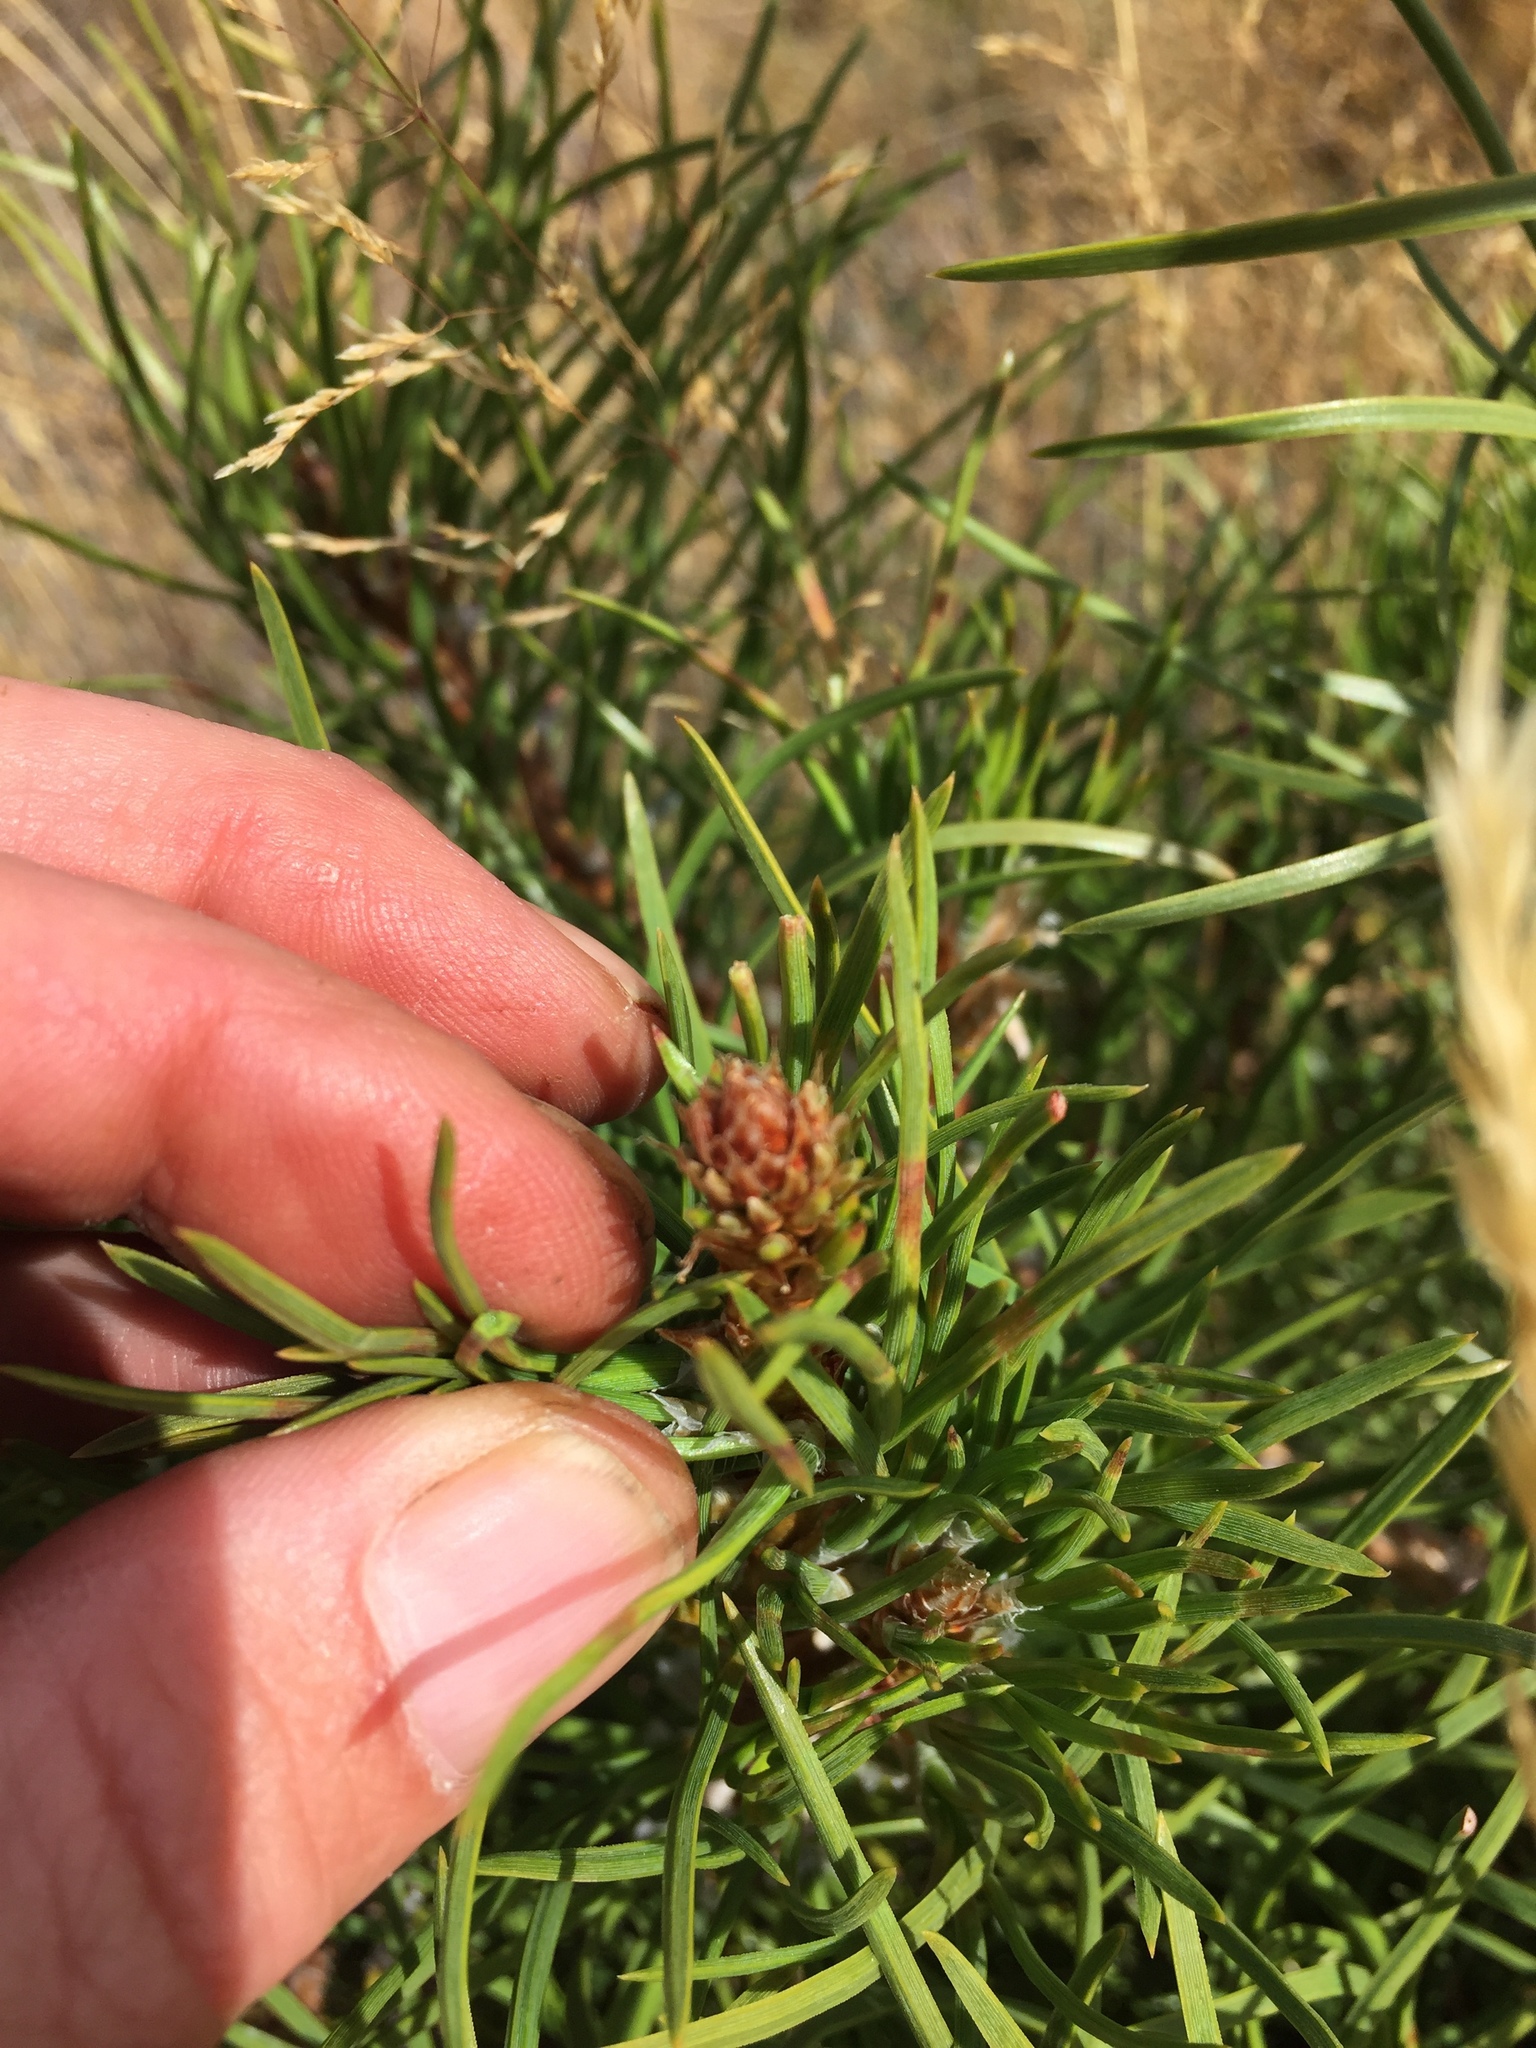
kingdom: Plantae
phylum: Tracheophyta
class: Pinopsida
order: Pinales
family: Pinaceae
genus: Pinus
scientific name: Pinus nigra
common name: Austrian pine
